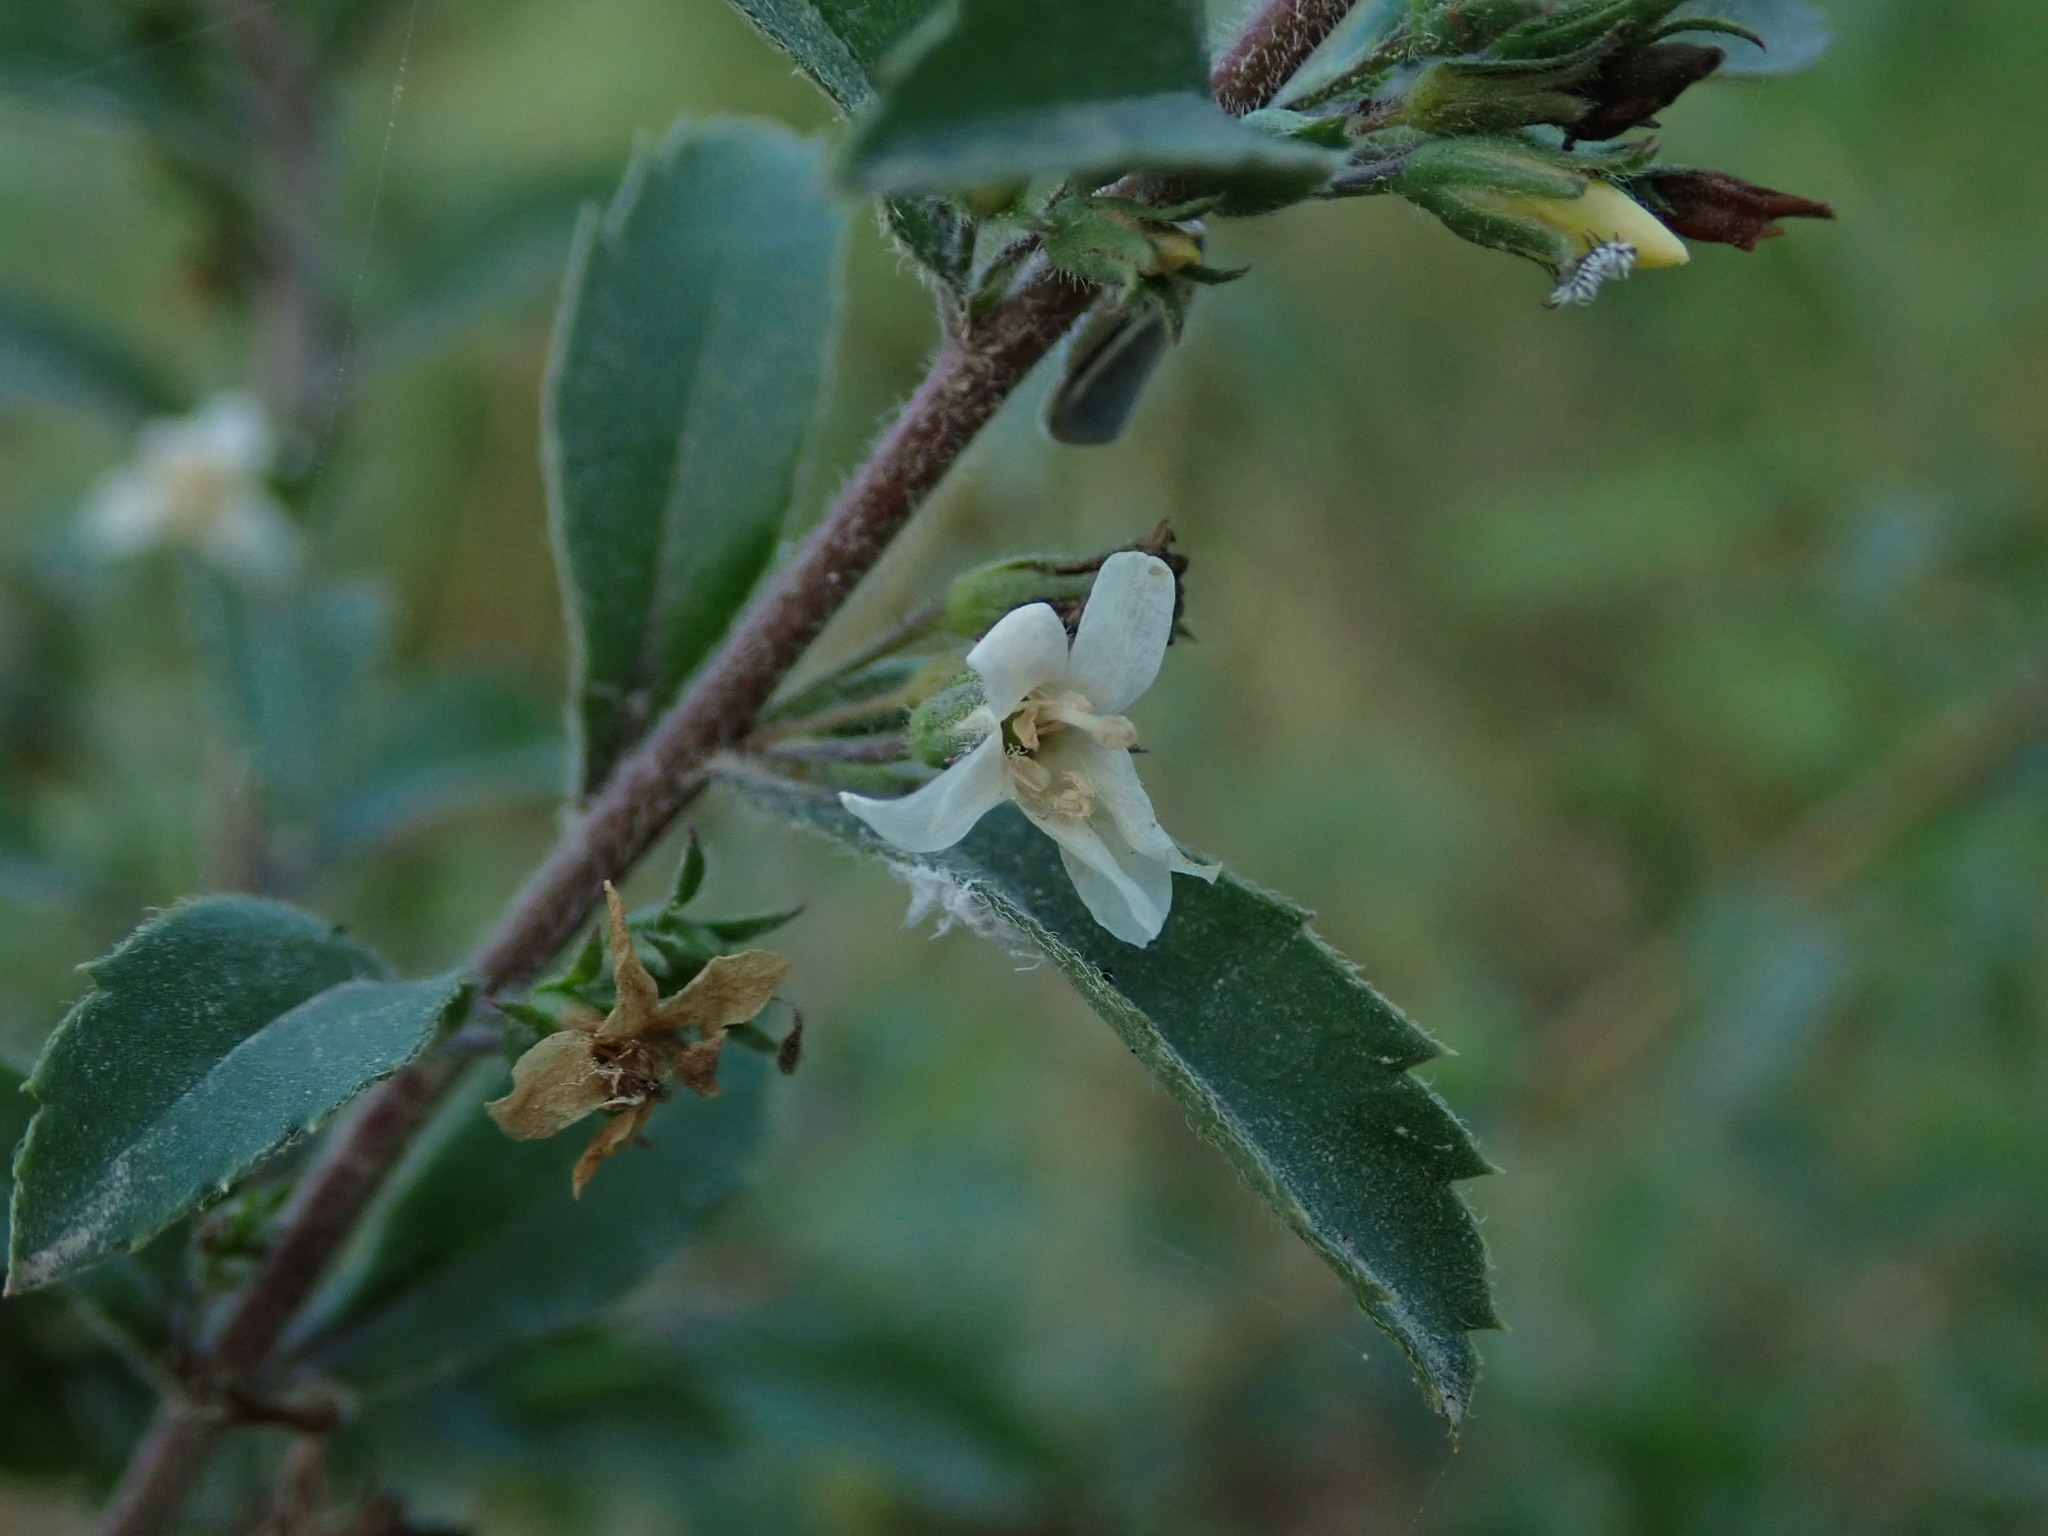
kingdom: Plantae
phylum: Tracheophyta
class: Magnoliopsida
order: Lamiales
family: Scrophulariaceae
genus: Capraria
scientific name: Capraria biflora
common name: Goatweed
